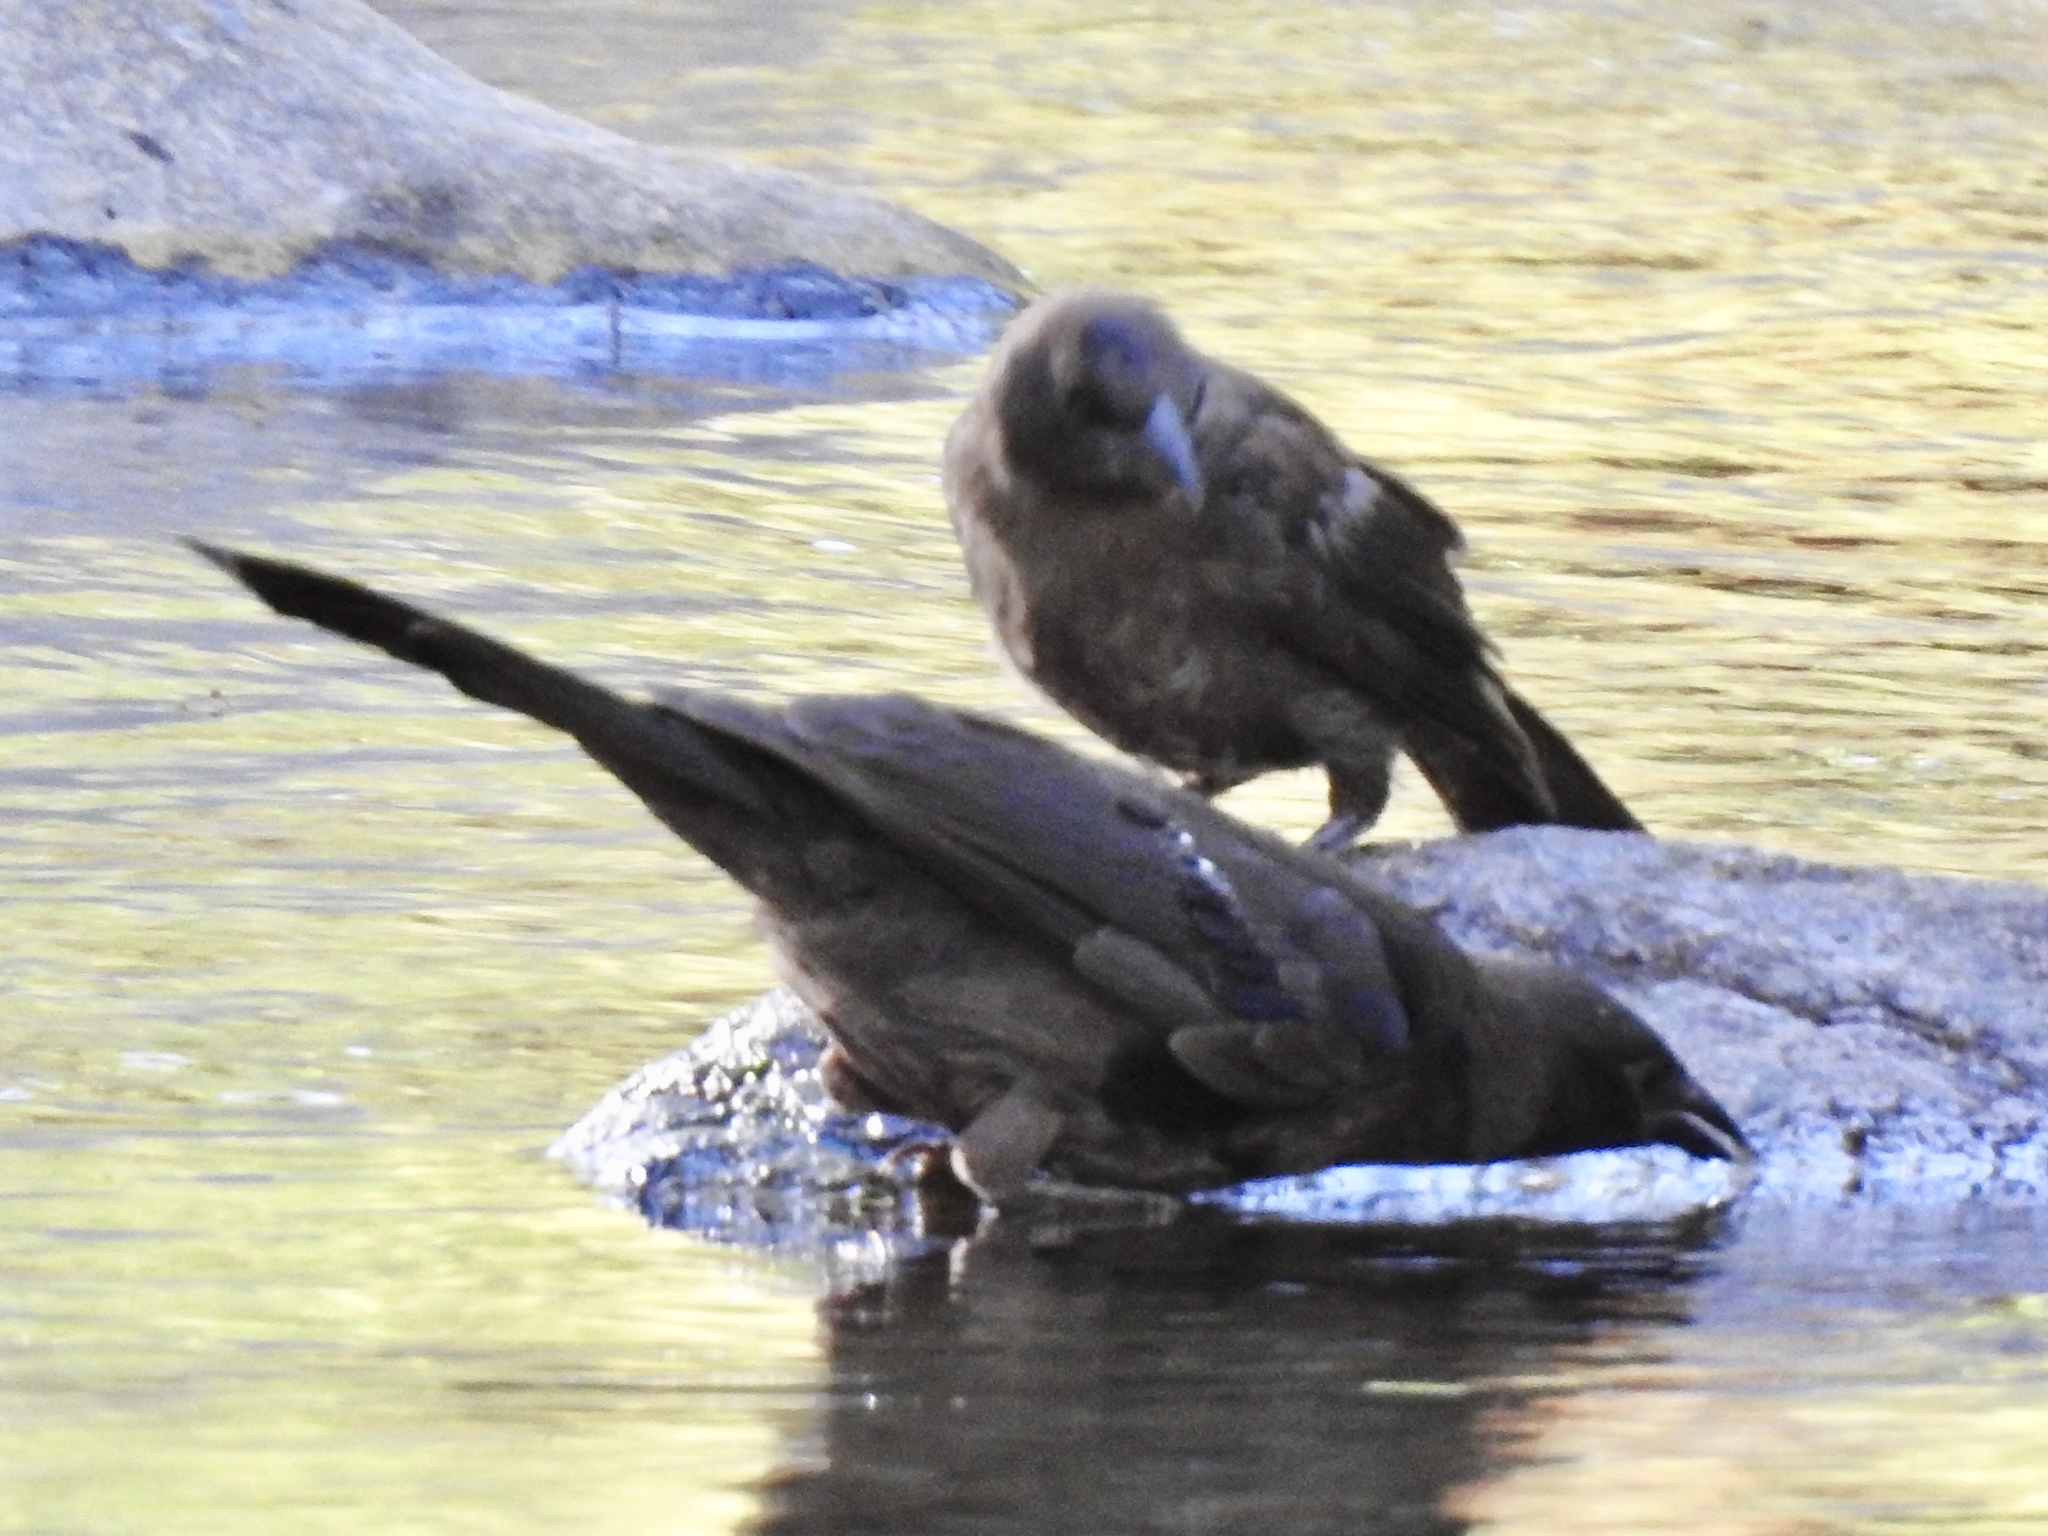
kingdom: Animalia
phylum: Chordata
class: Aves
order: Passeriformes
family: Icteridae
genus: Euphagus
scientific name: Euphagus cyanocephalus
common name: Brewer's blackbird
